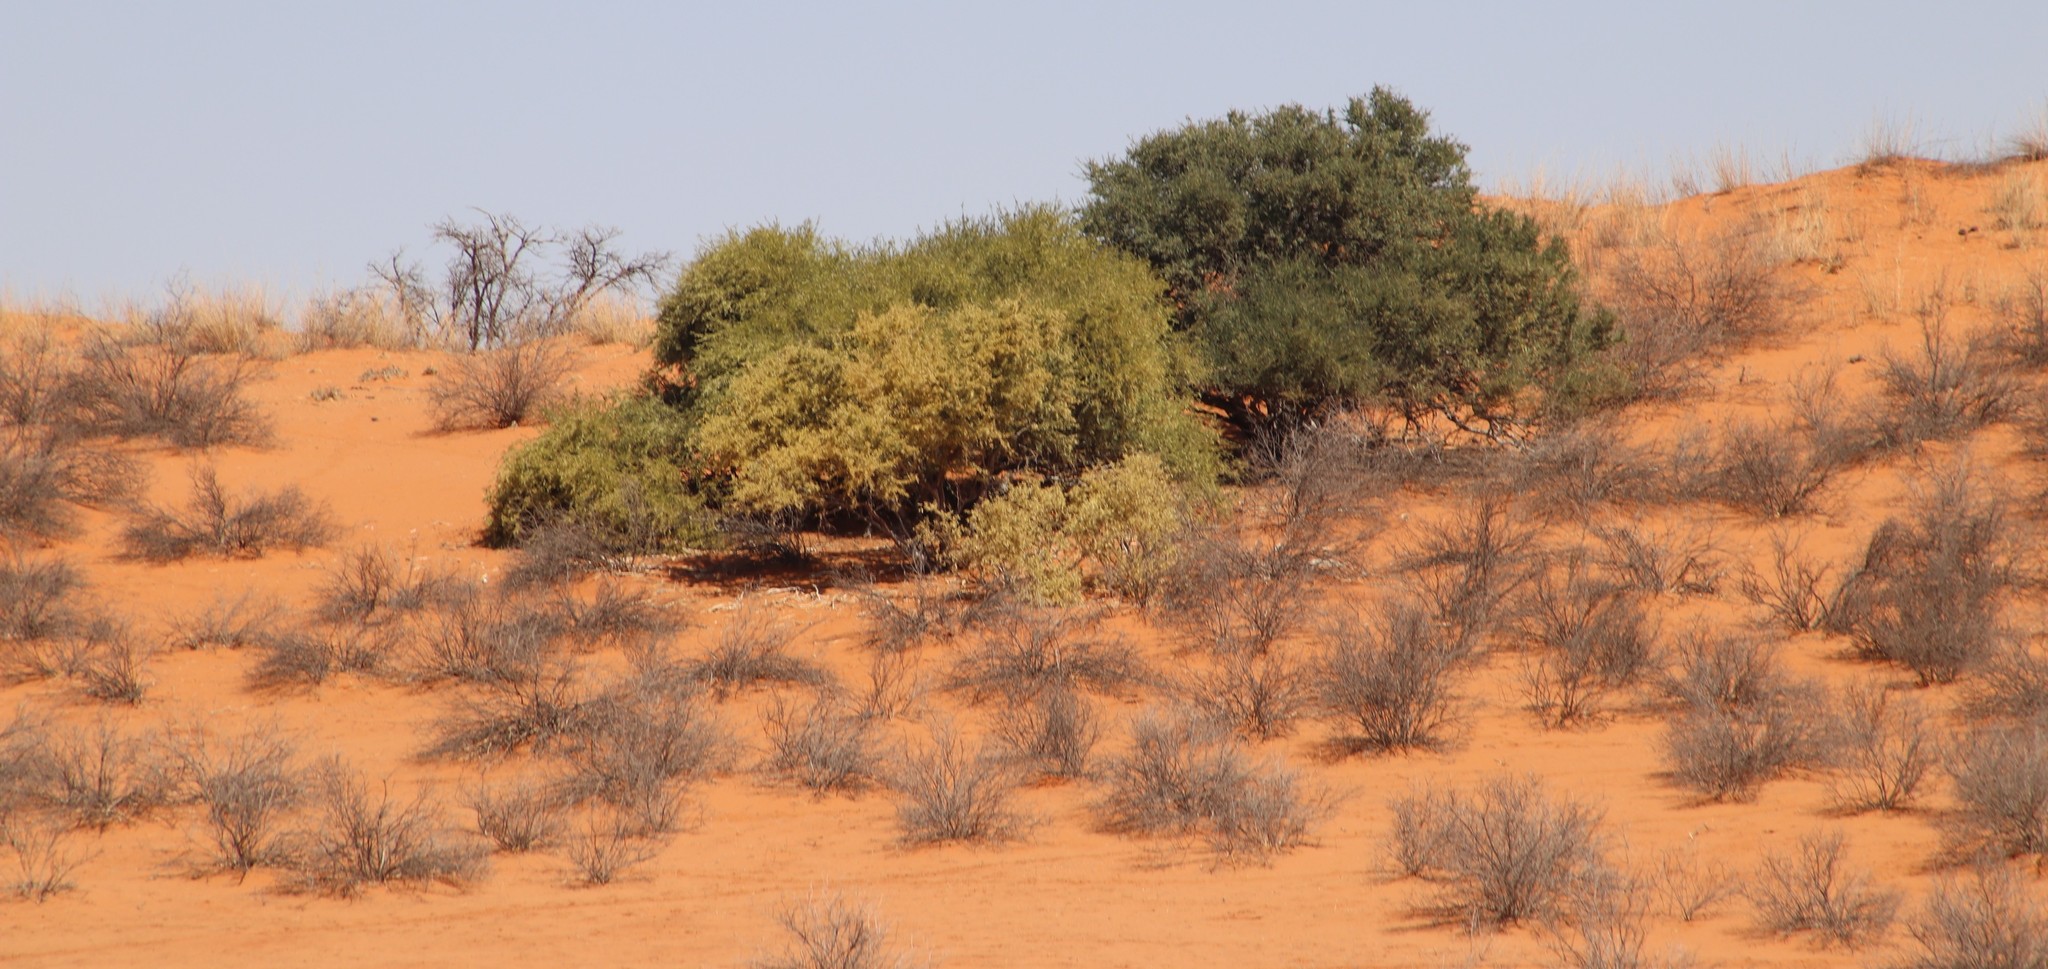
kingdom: Plantae
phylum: Tracheophyta
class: Magnoliopsida
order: Lamiales
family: Bignoniaceae
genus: Rhigozum
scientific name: Rhigozum trichotomum
